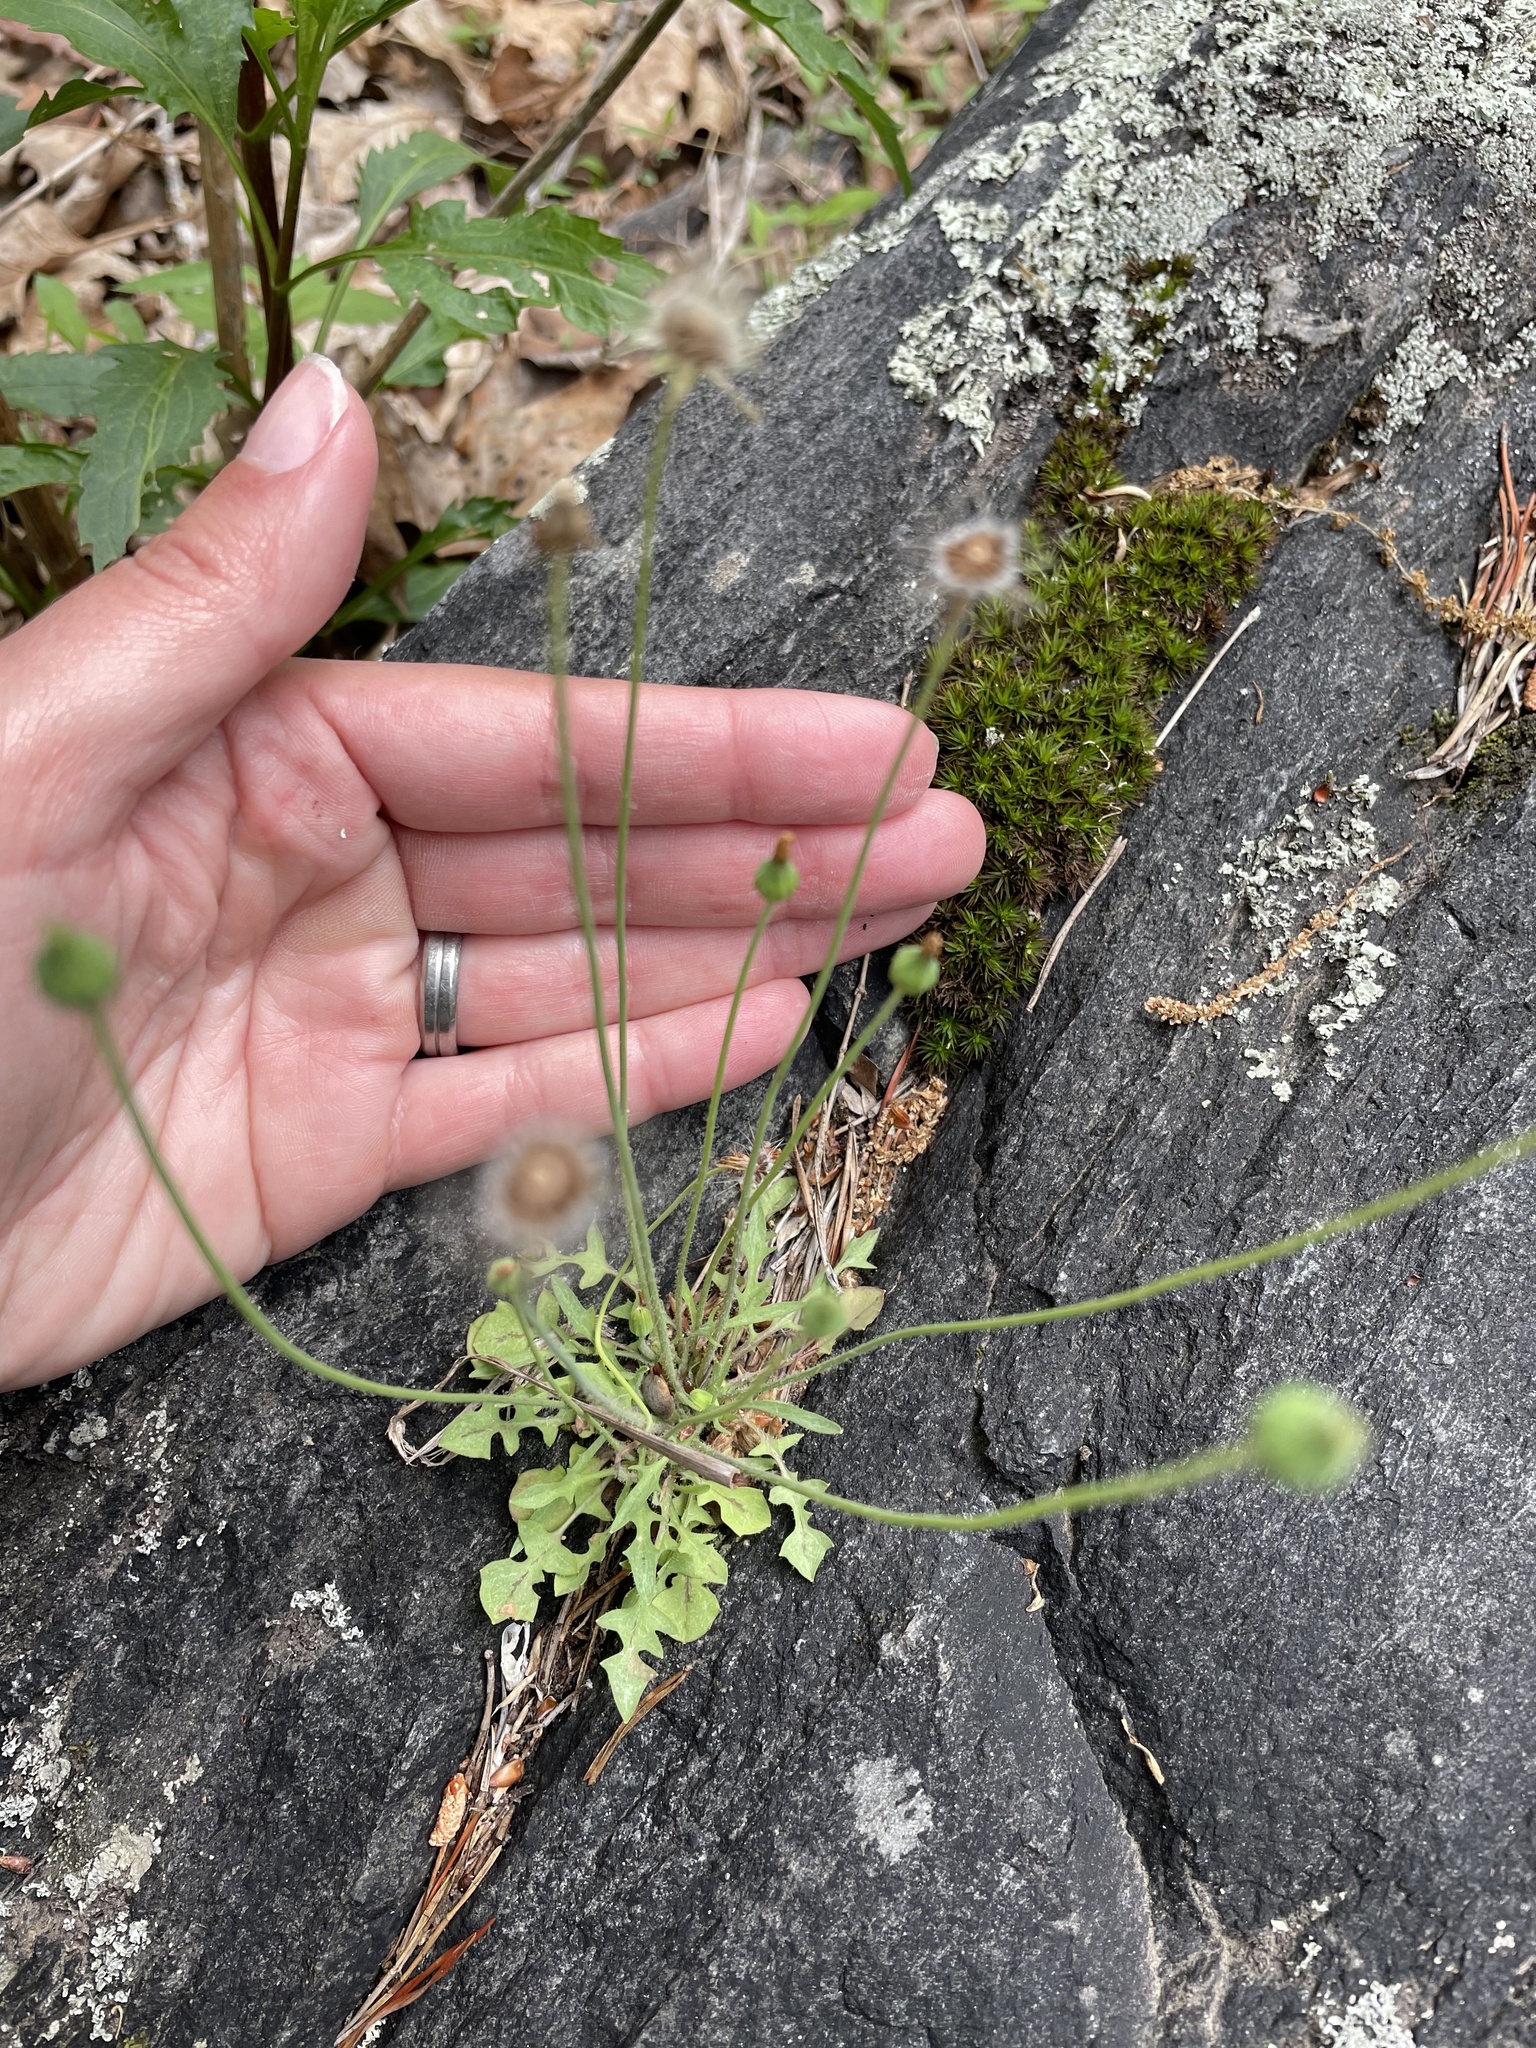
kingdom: Plantae
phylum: Tracheophyta
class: Magnoliopsida
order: Asterales
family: Asteraceae
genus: Krigia
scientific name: Krigia virginica
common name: Virginia dwarf-dandelion
